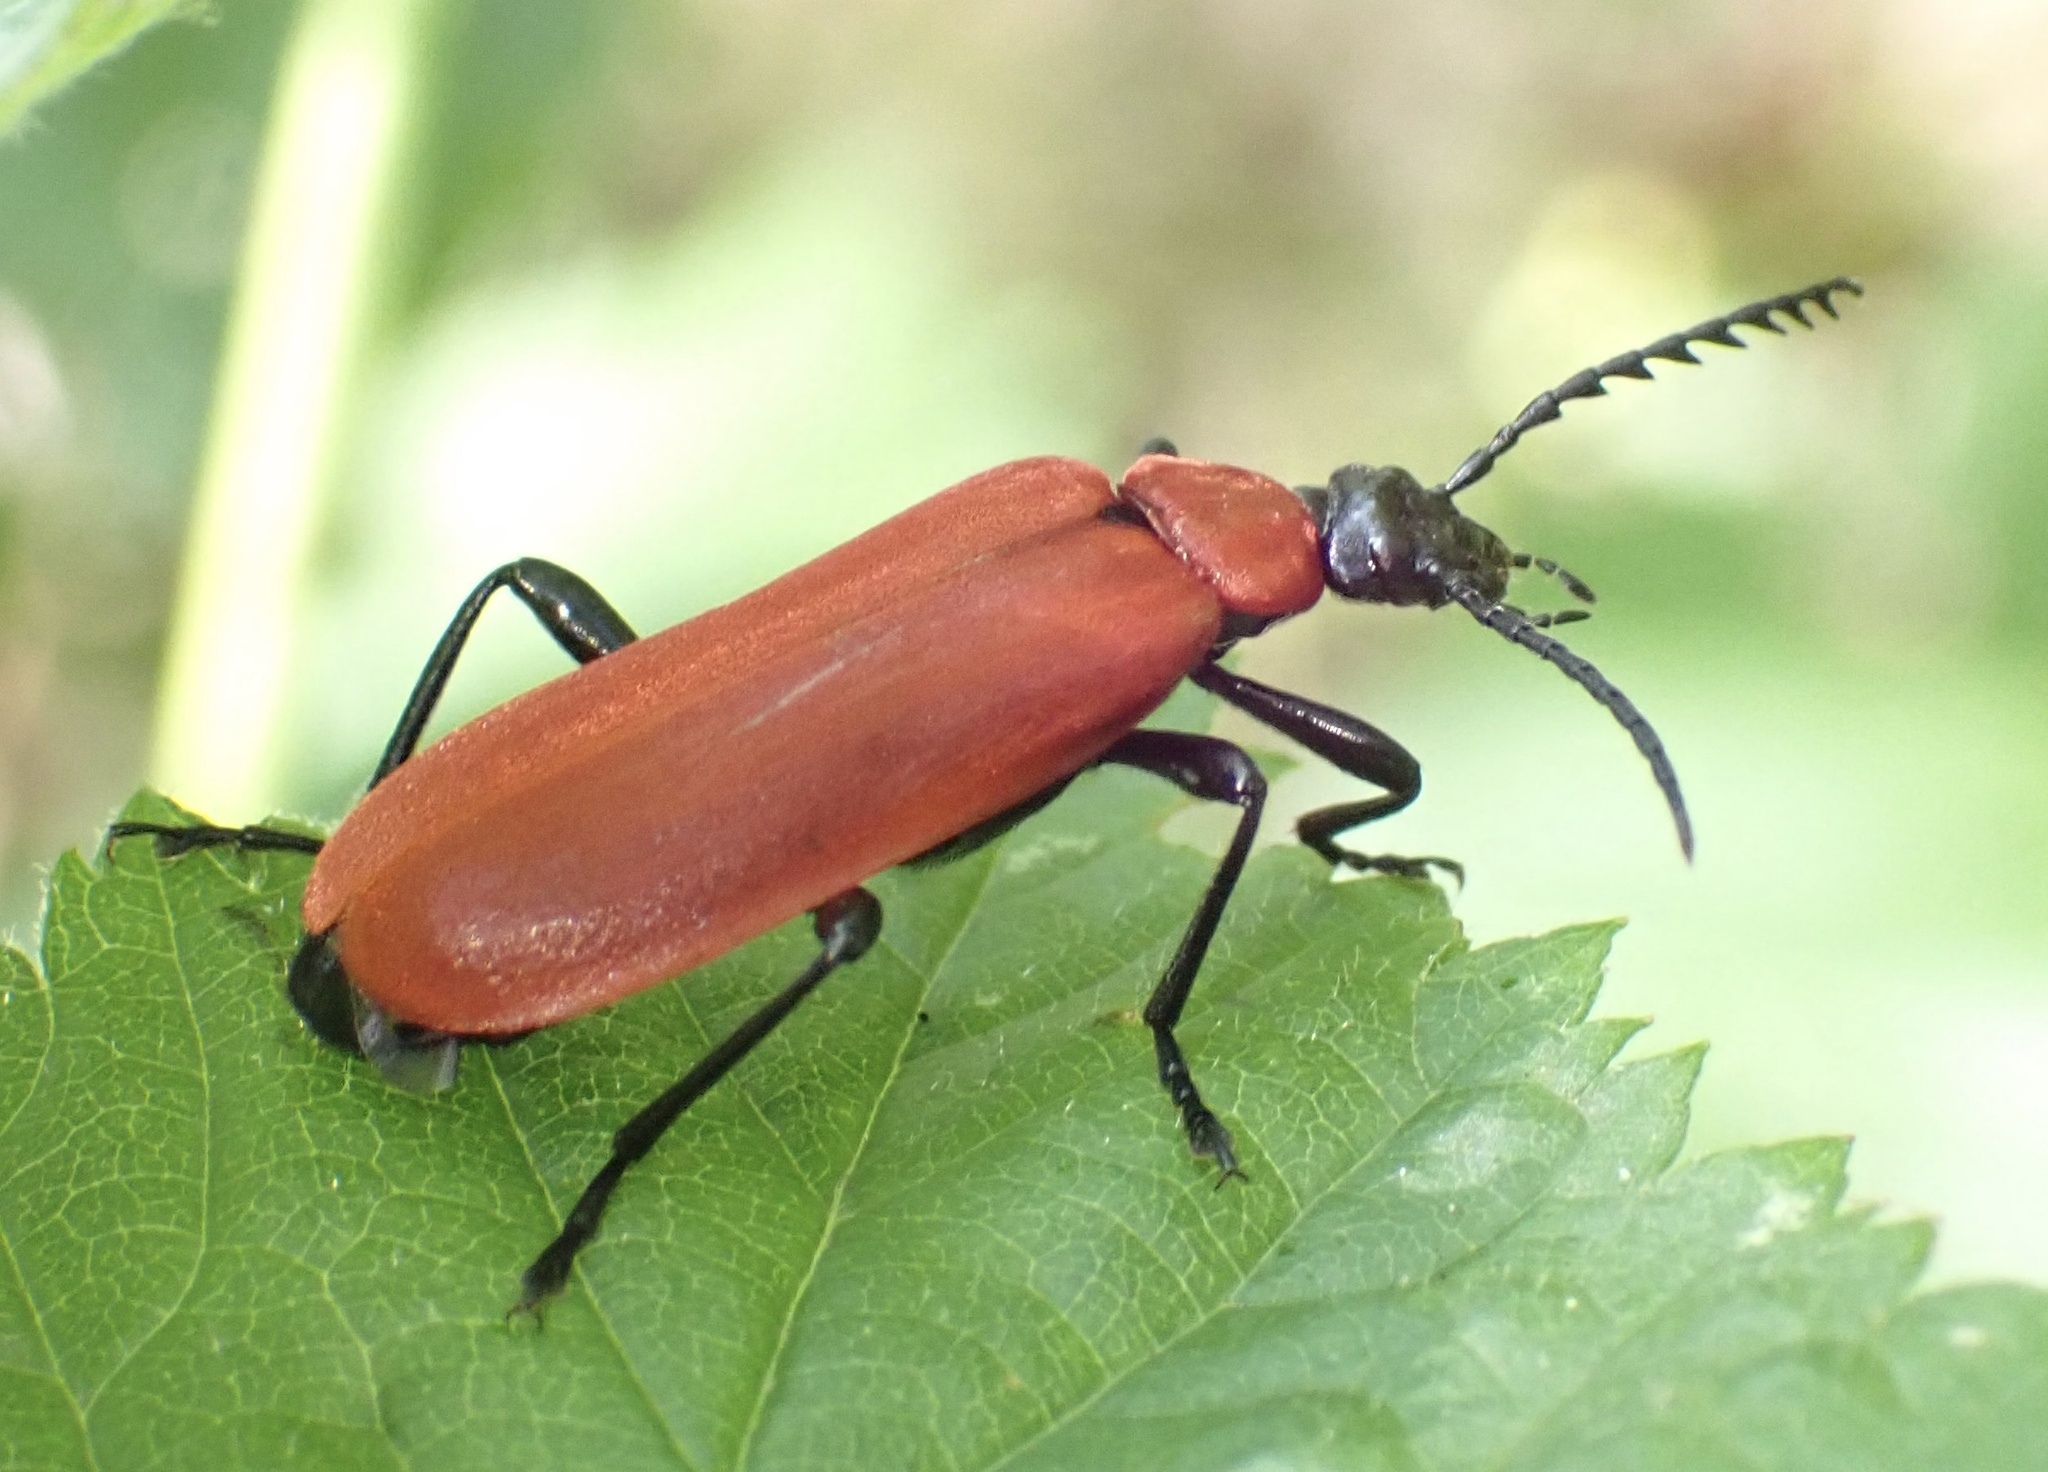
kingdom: Animalia
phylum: Arthropoda
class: Insecta
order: Coleoptera
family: Pyrochroidae
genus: Pyrochroa
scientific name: Pyrochroa coccinea
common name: Black-headed cardinal beetle
